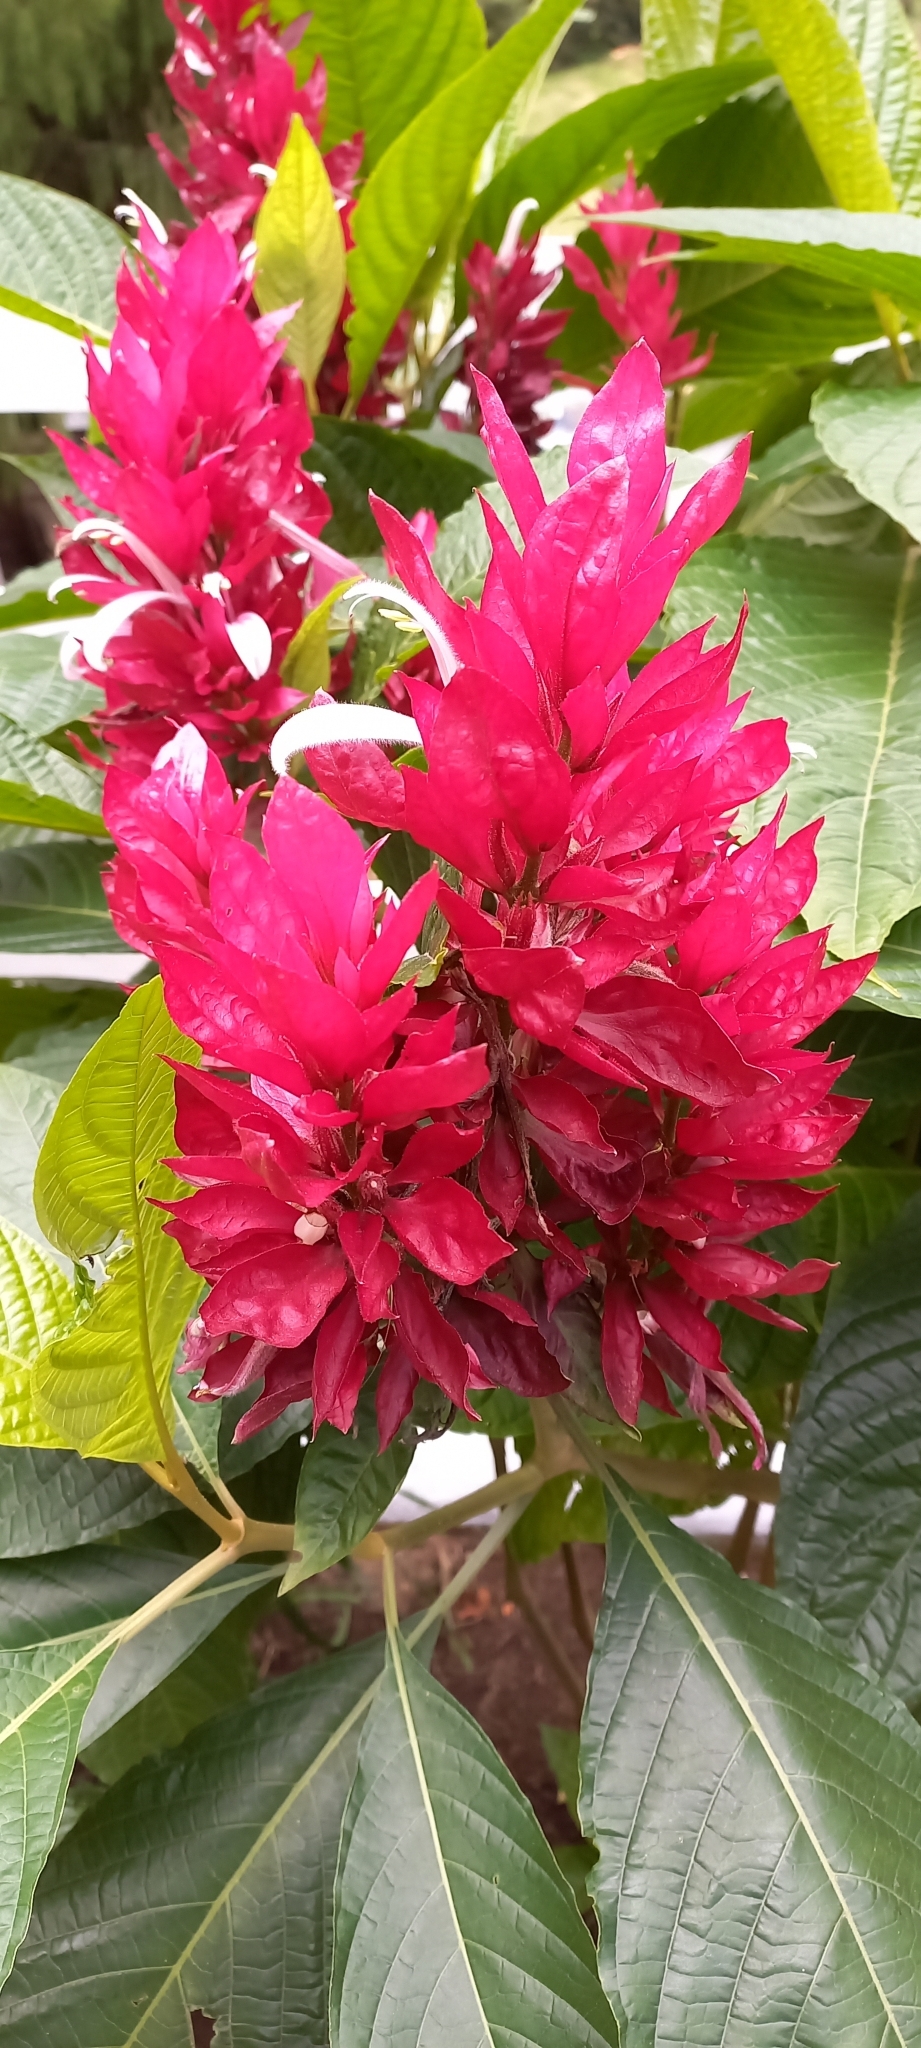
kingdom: Plantae
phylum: Tracheophyta
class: Magnoliopsida
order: Lamiales
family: Acanthaceae
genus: Megaskepasma
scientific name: Megaskepasma erythrochlamys
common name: Brazilian red-cloak
